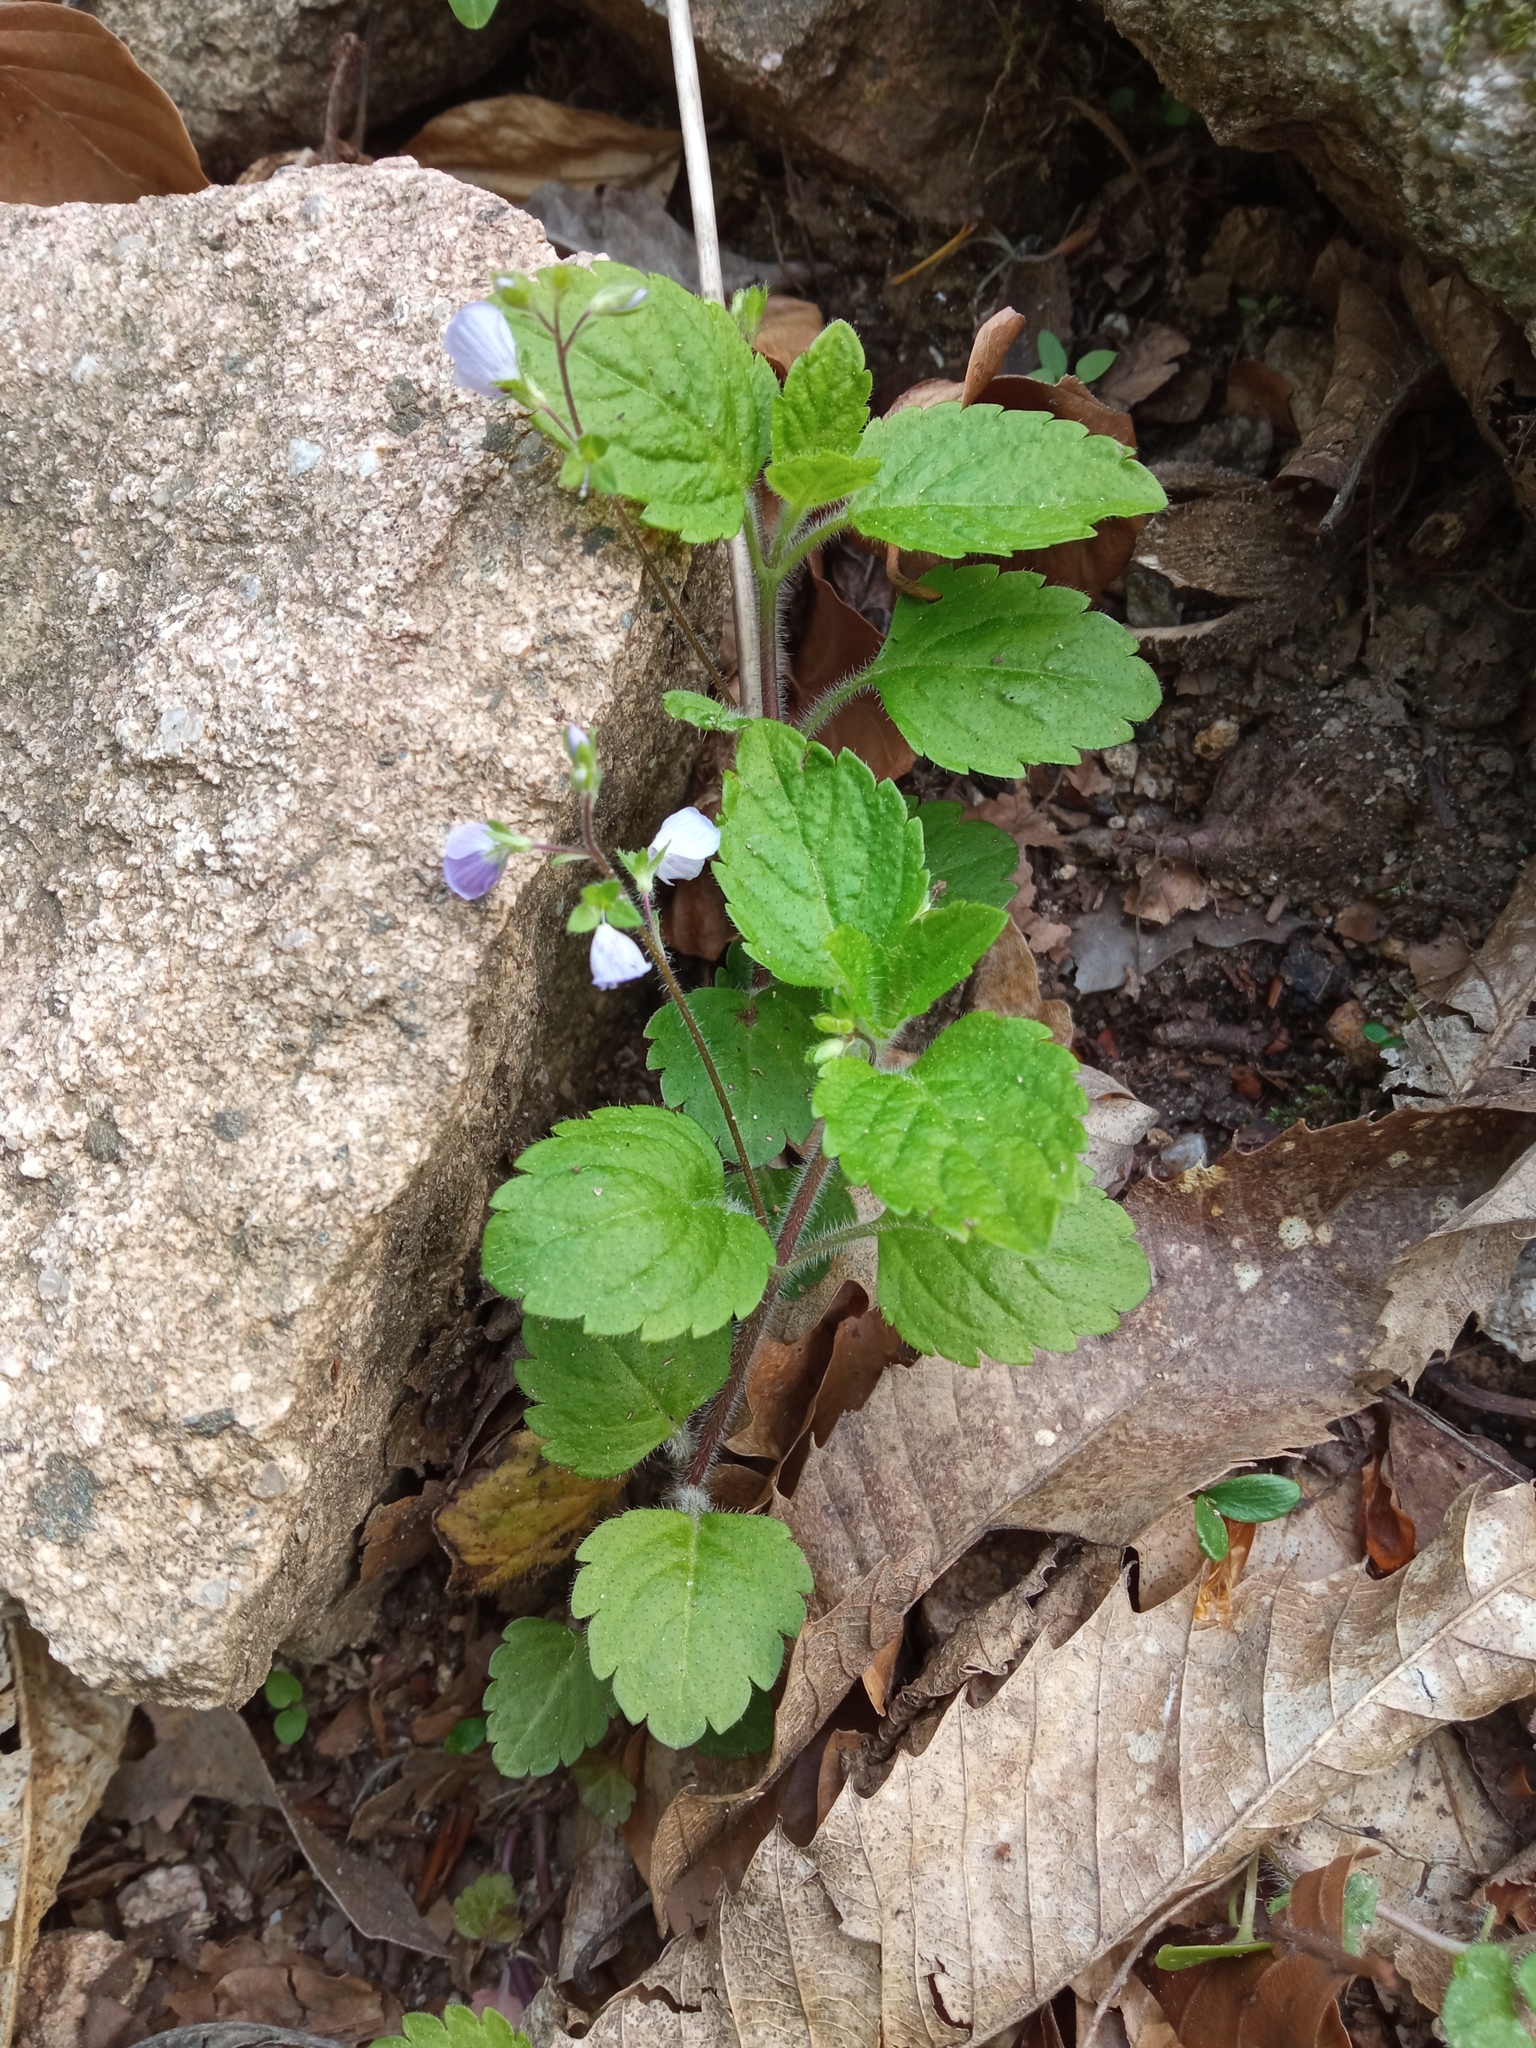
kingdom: Plantae
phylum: Tracheophyta
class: Magnoliopsida
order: Lamiales
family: Plantaginaceae
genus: Veronica
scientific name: Veronica montana
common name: Wood speedwell
